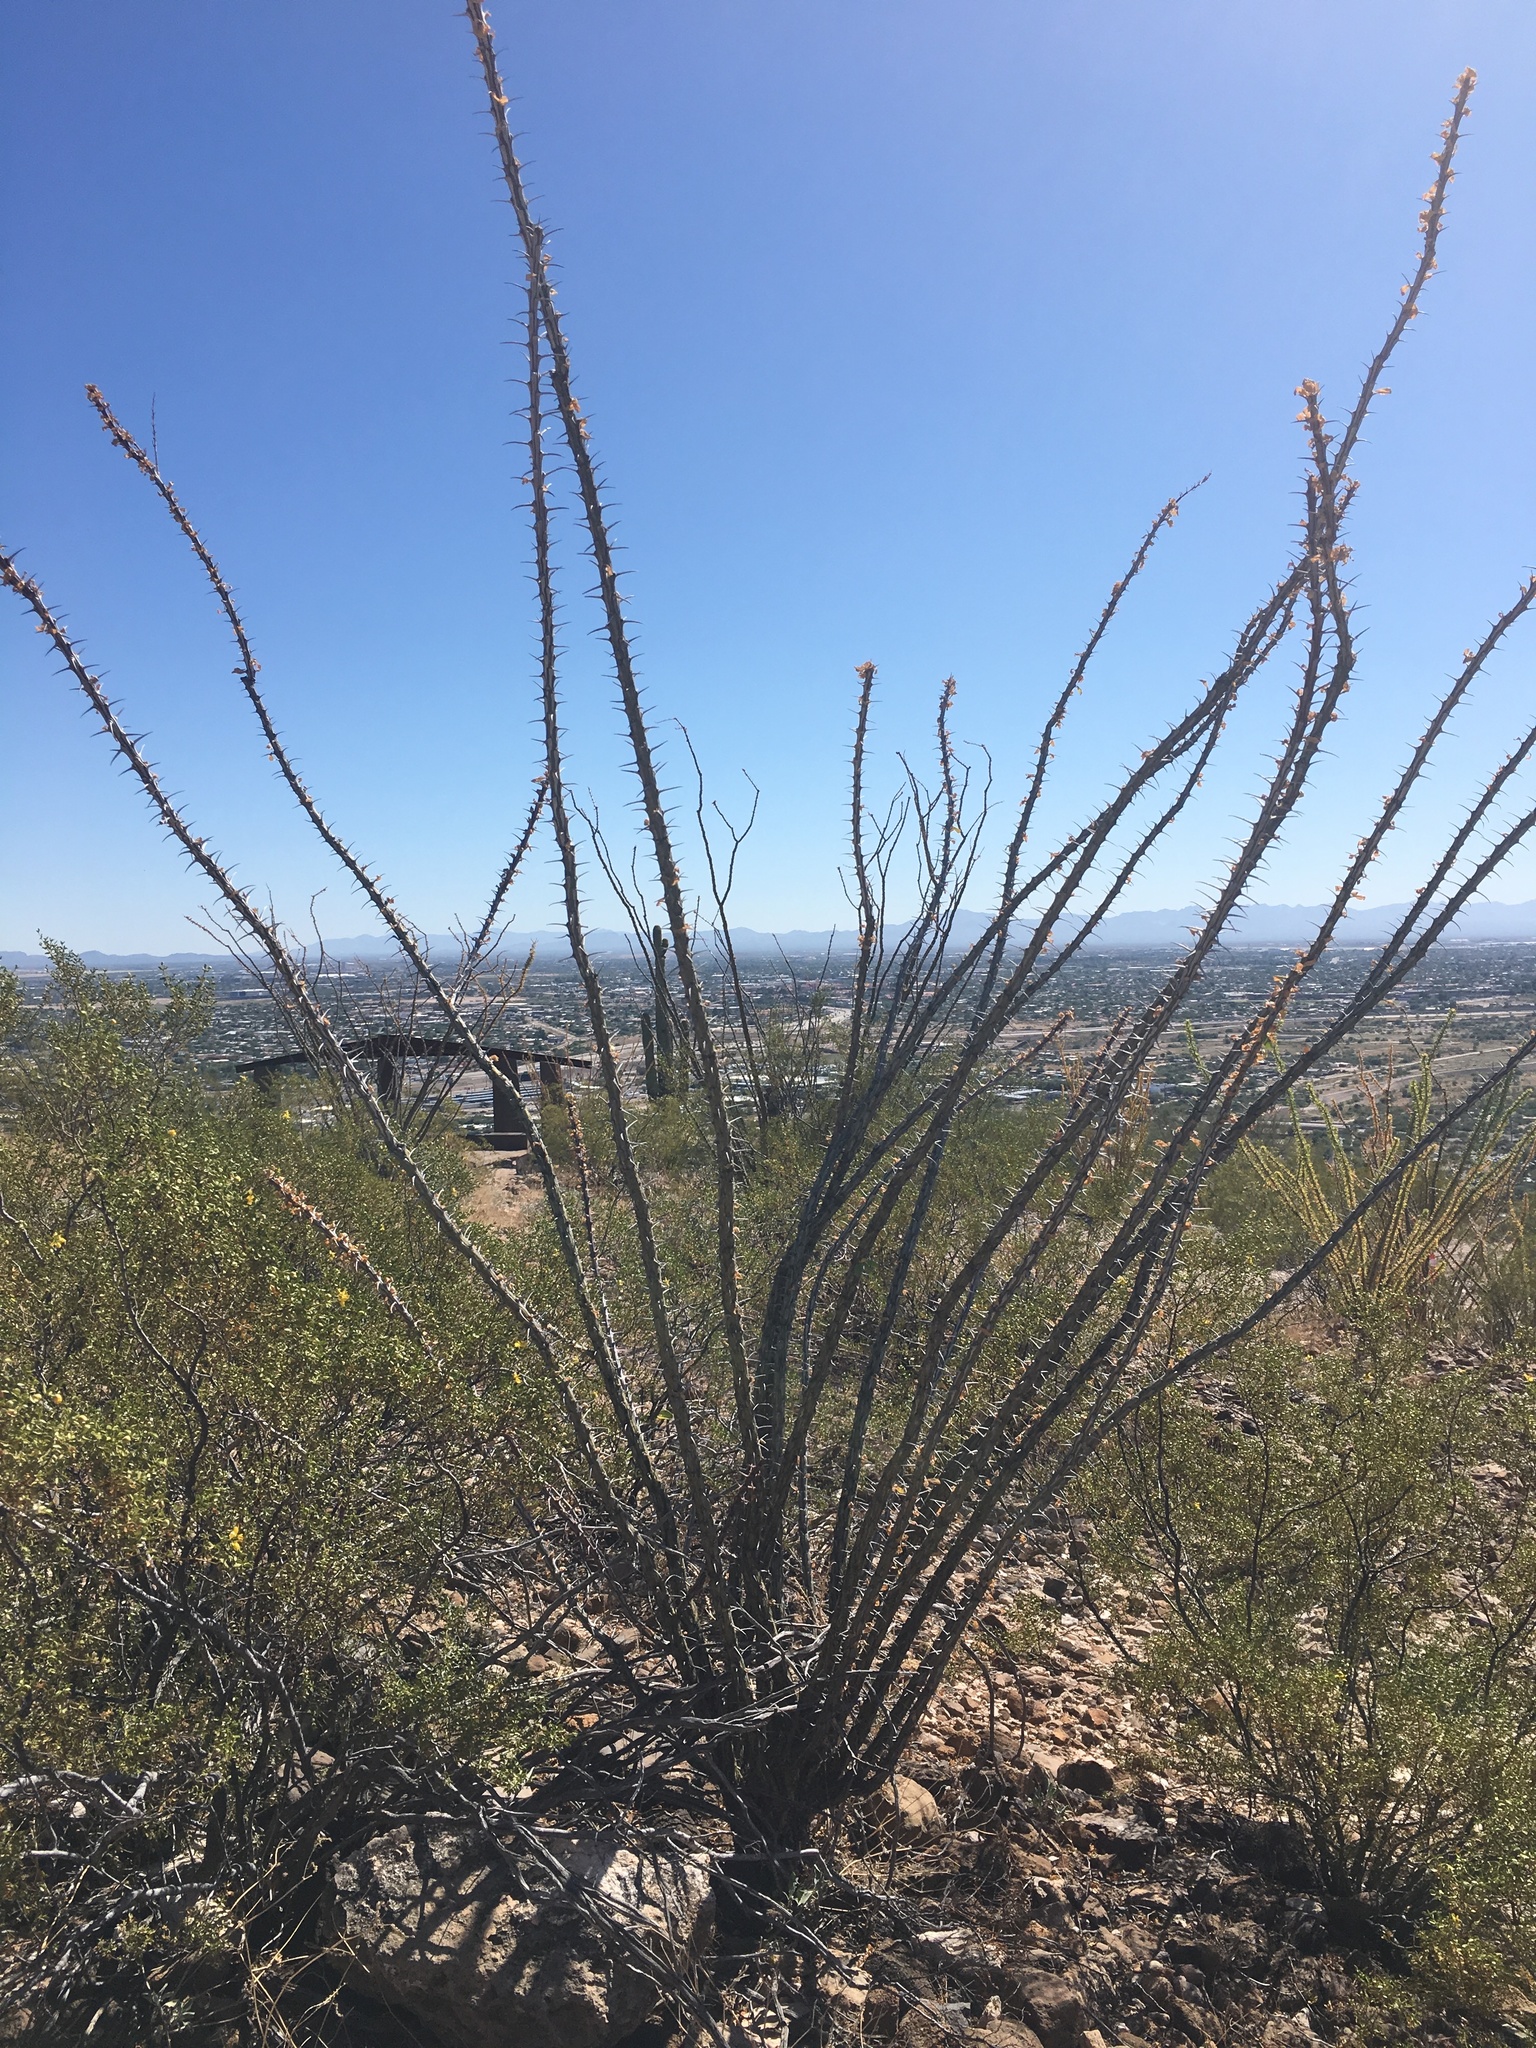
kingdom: Plantae
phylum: Tracheophyta
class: Magnoliopsida
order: Ericales
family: Fouquieriaceae
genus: Fouquieria
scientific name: Fouquieria splendens
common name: Vine-cactus
